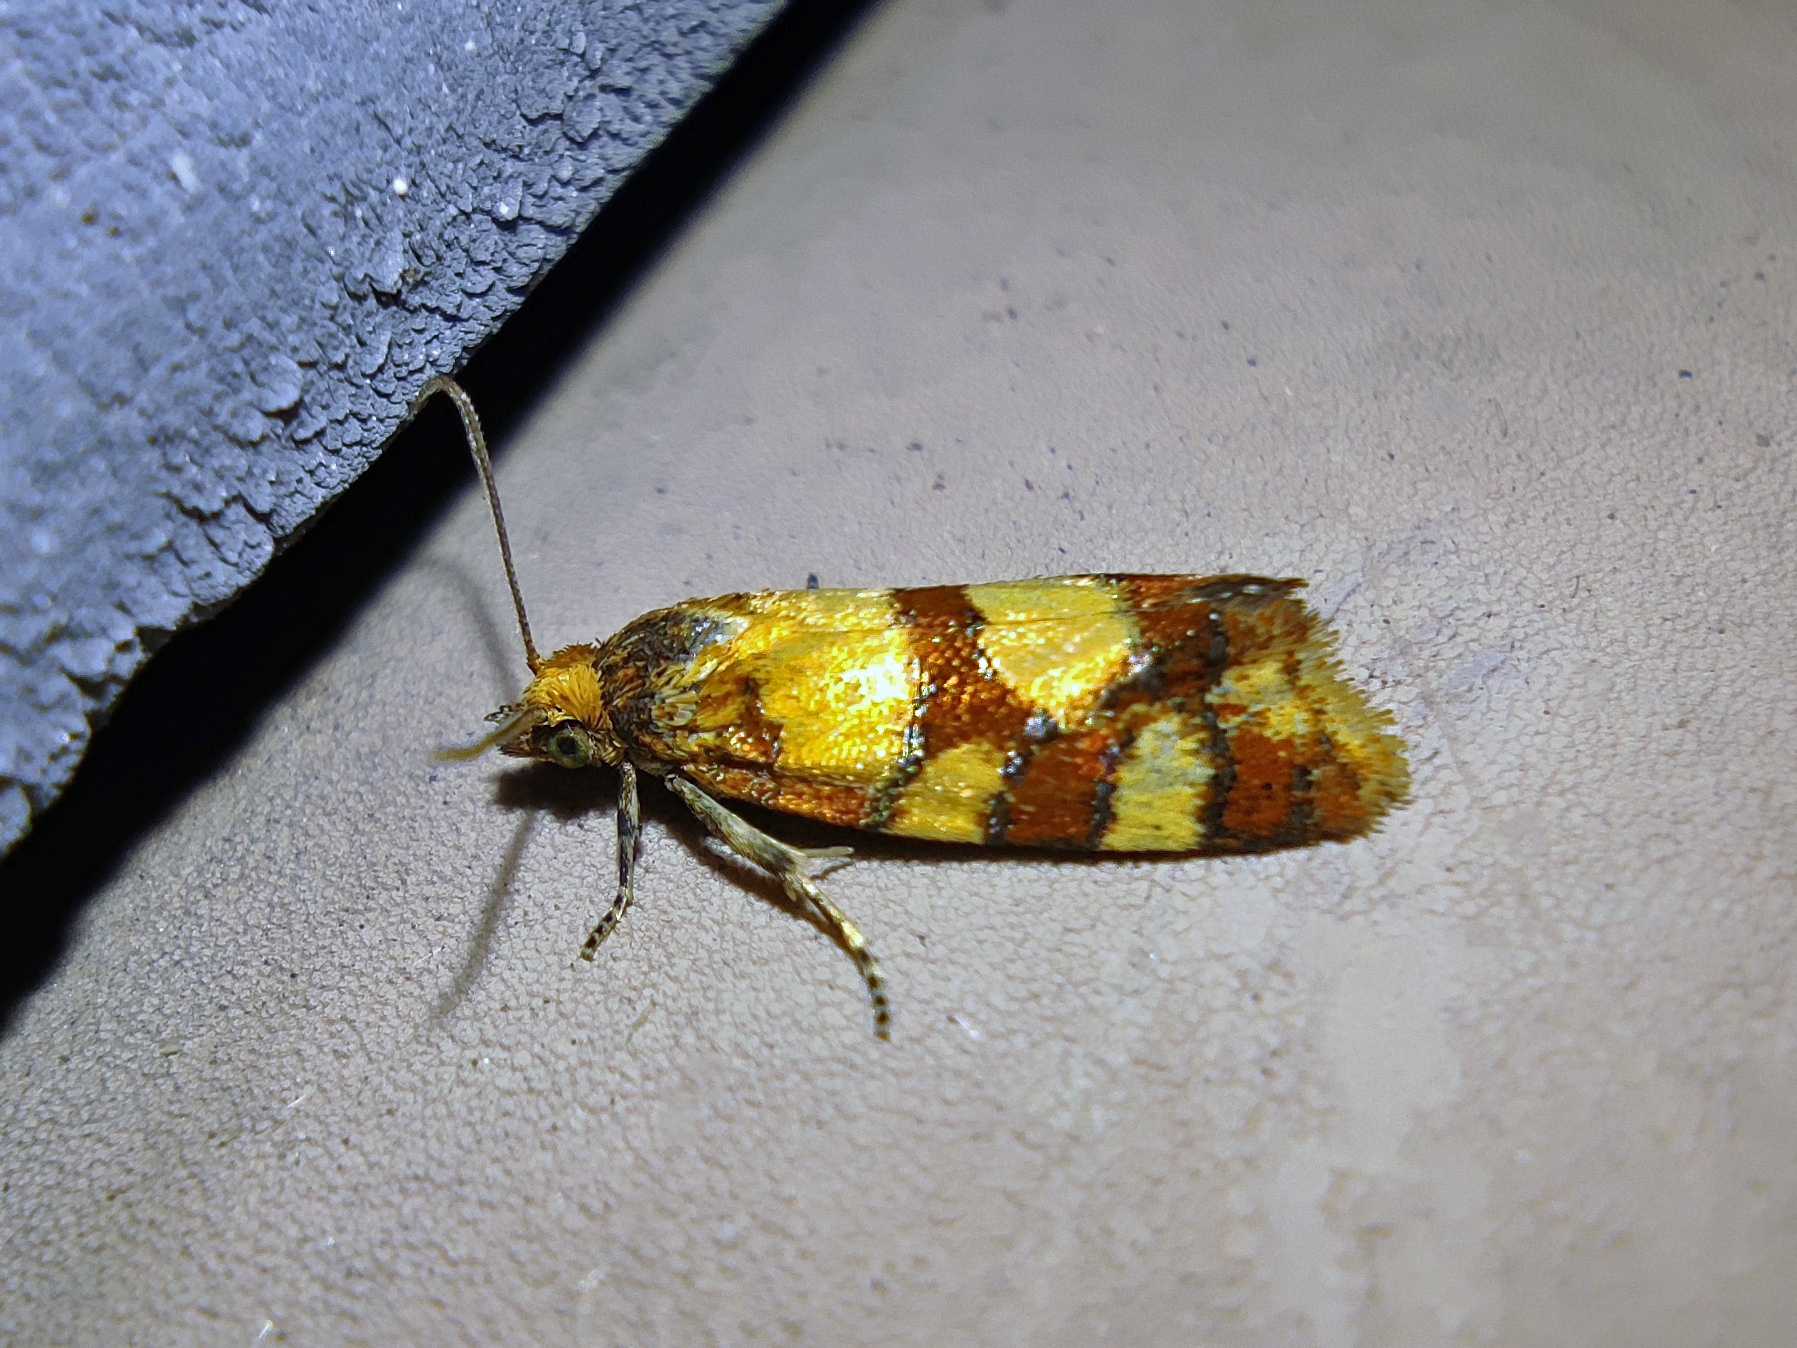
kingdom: Animalia
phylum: Arthropoda
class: Insecta
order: Lepidoptera
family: Tortricidae
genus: Aethes
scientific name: Aethes tesserana
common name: Downland conch
